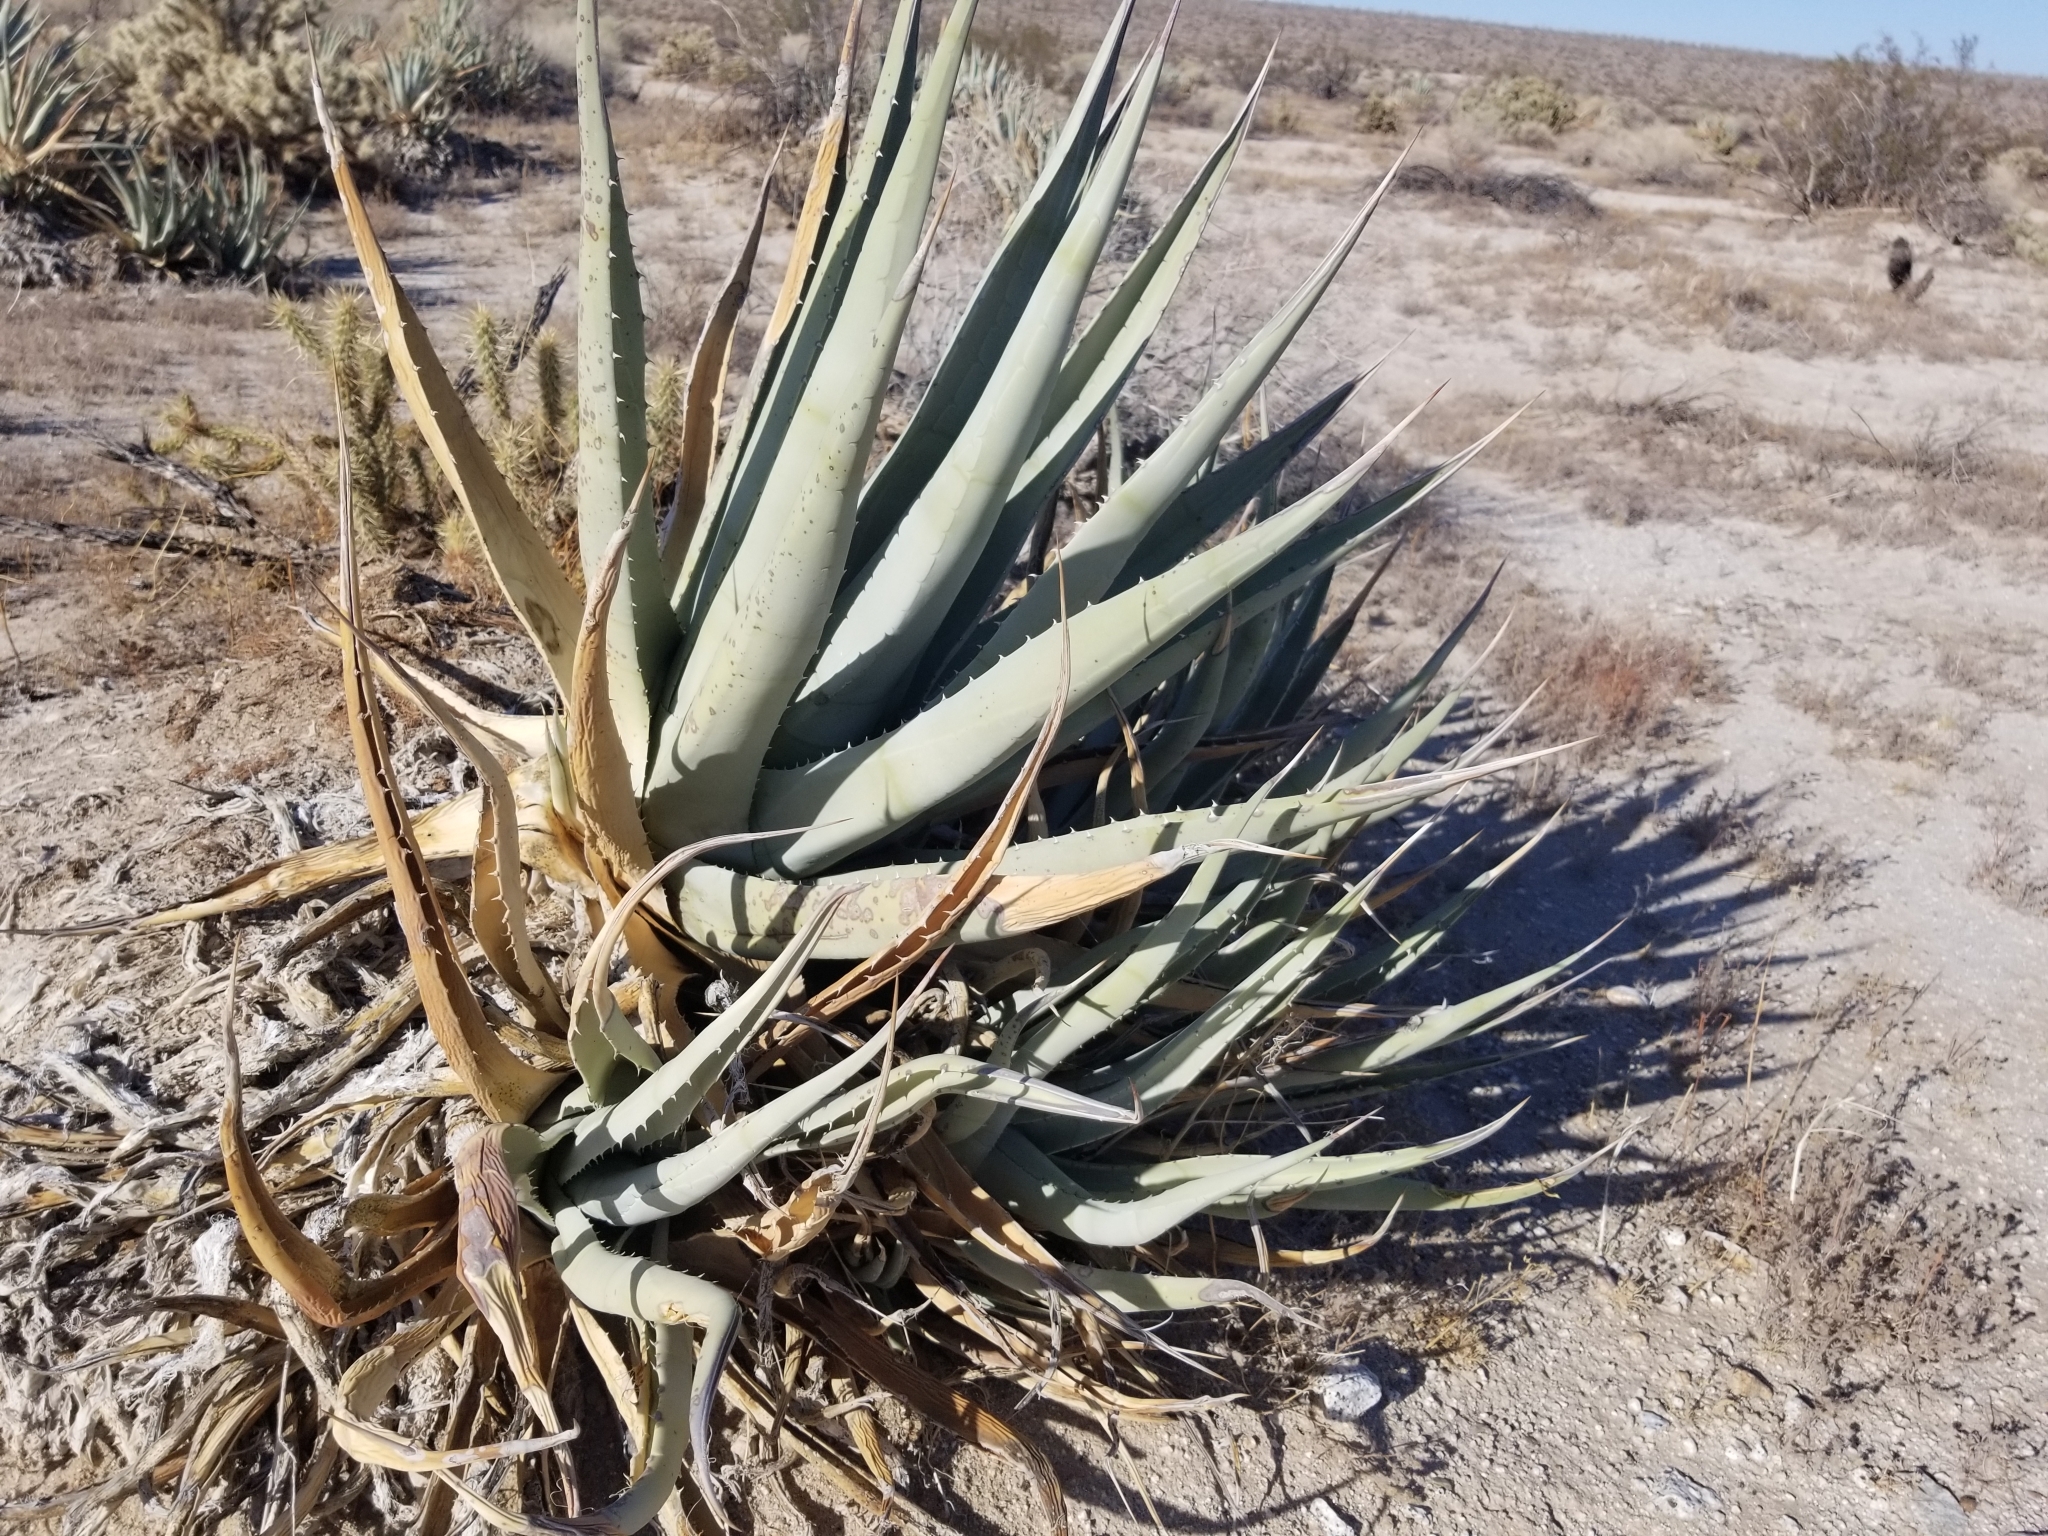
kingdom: Plantae
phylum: Tracheophyta
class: Liliopsida
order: Asparagales
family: Asparagaceae
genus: Agave
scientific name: Agave deserti
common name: Desert agave
